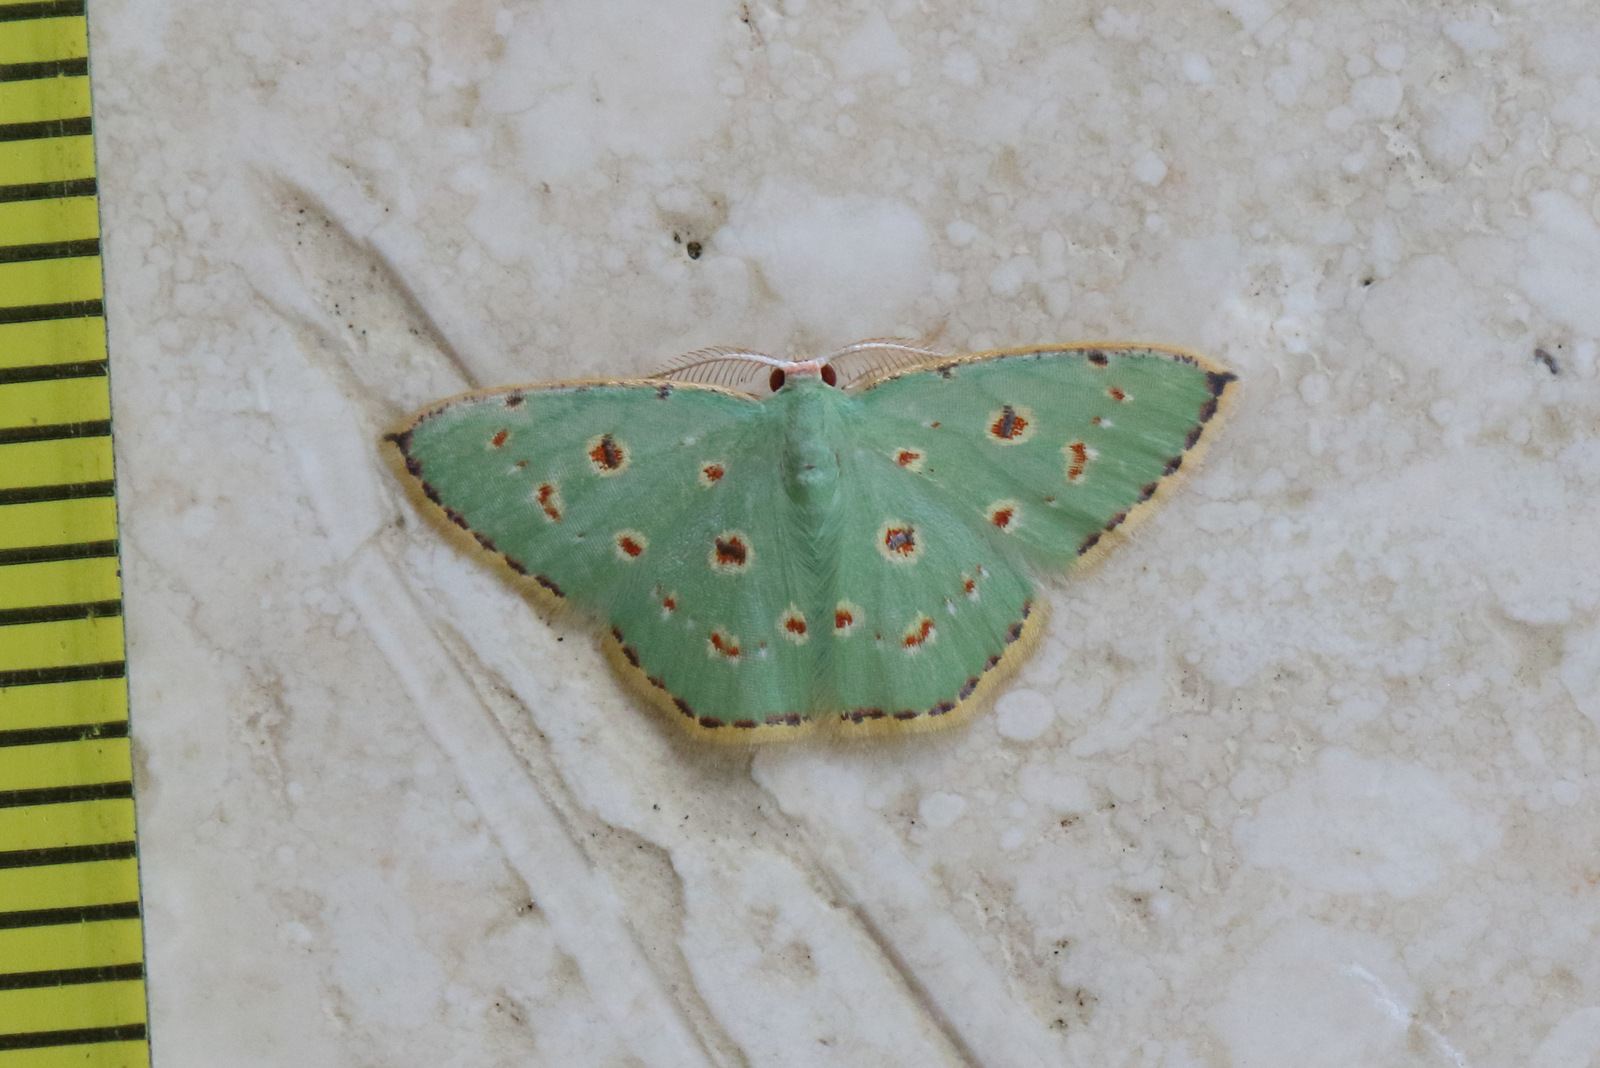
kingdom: Animalia
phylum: Arthropoda
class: Insecta
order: Lepidoptera
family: Geometridae
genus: Comostola
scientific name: Comostola laesaria
